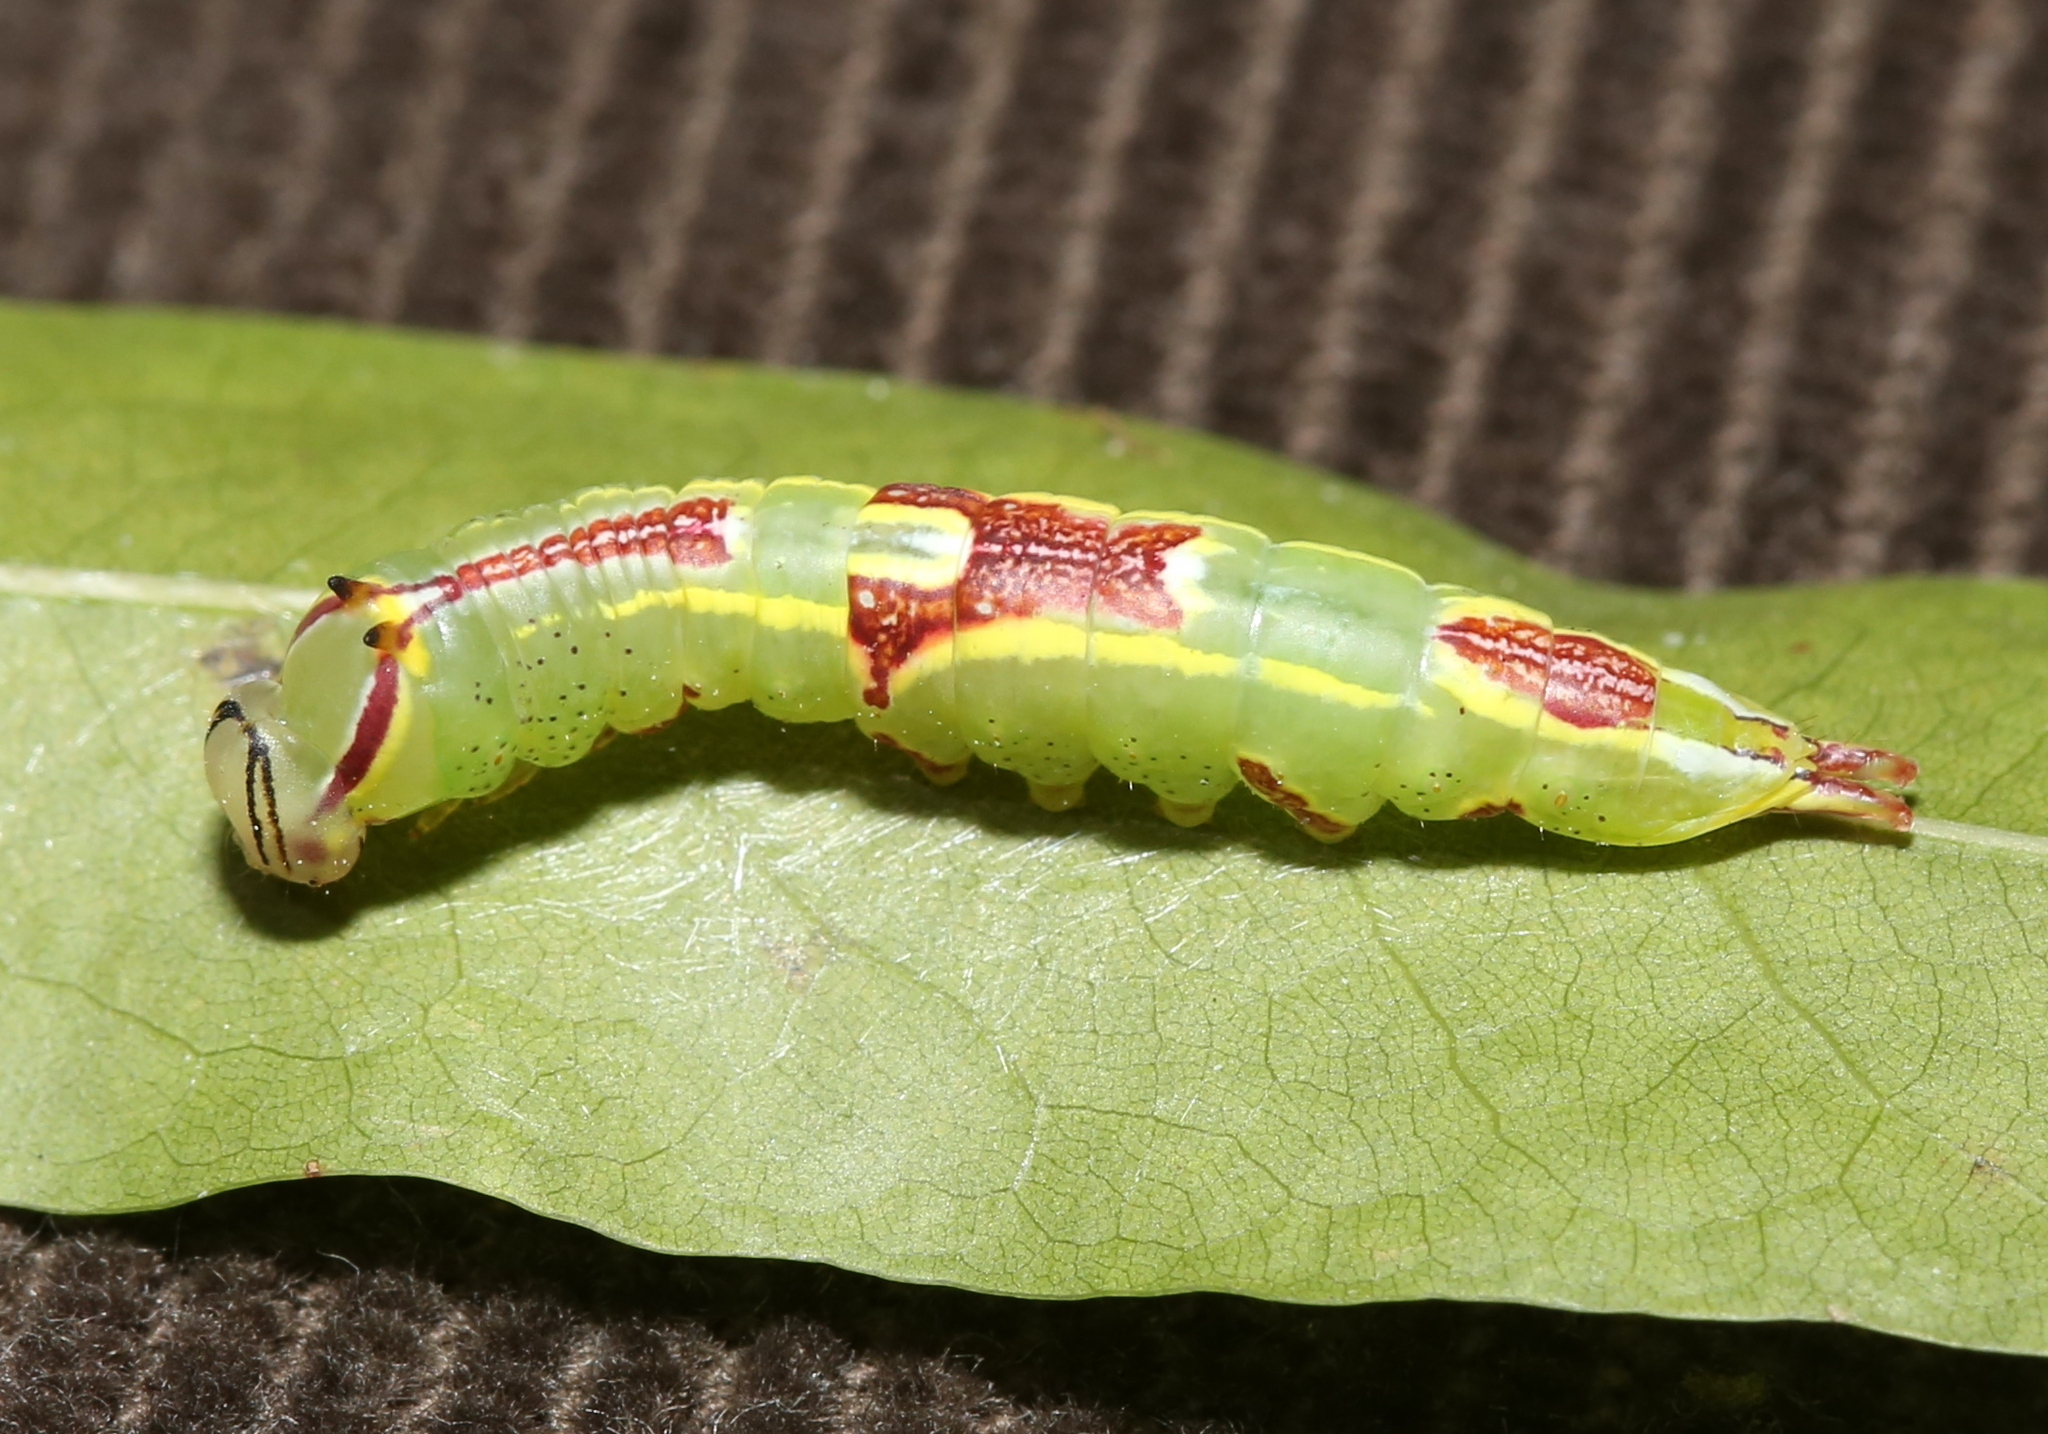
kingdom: Animalia
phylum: Arthropoda
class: Insecta
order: Lepidoptera
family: Notodontidae
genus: Disphragis
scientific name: Disphragis Cecrita guttivitta
